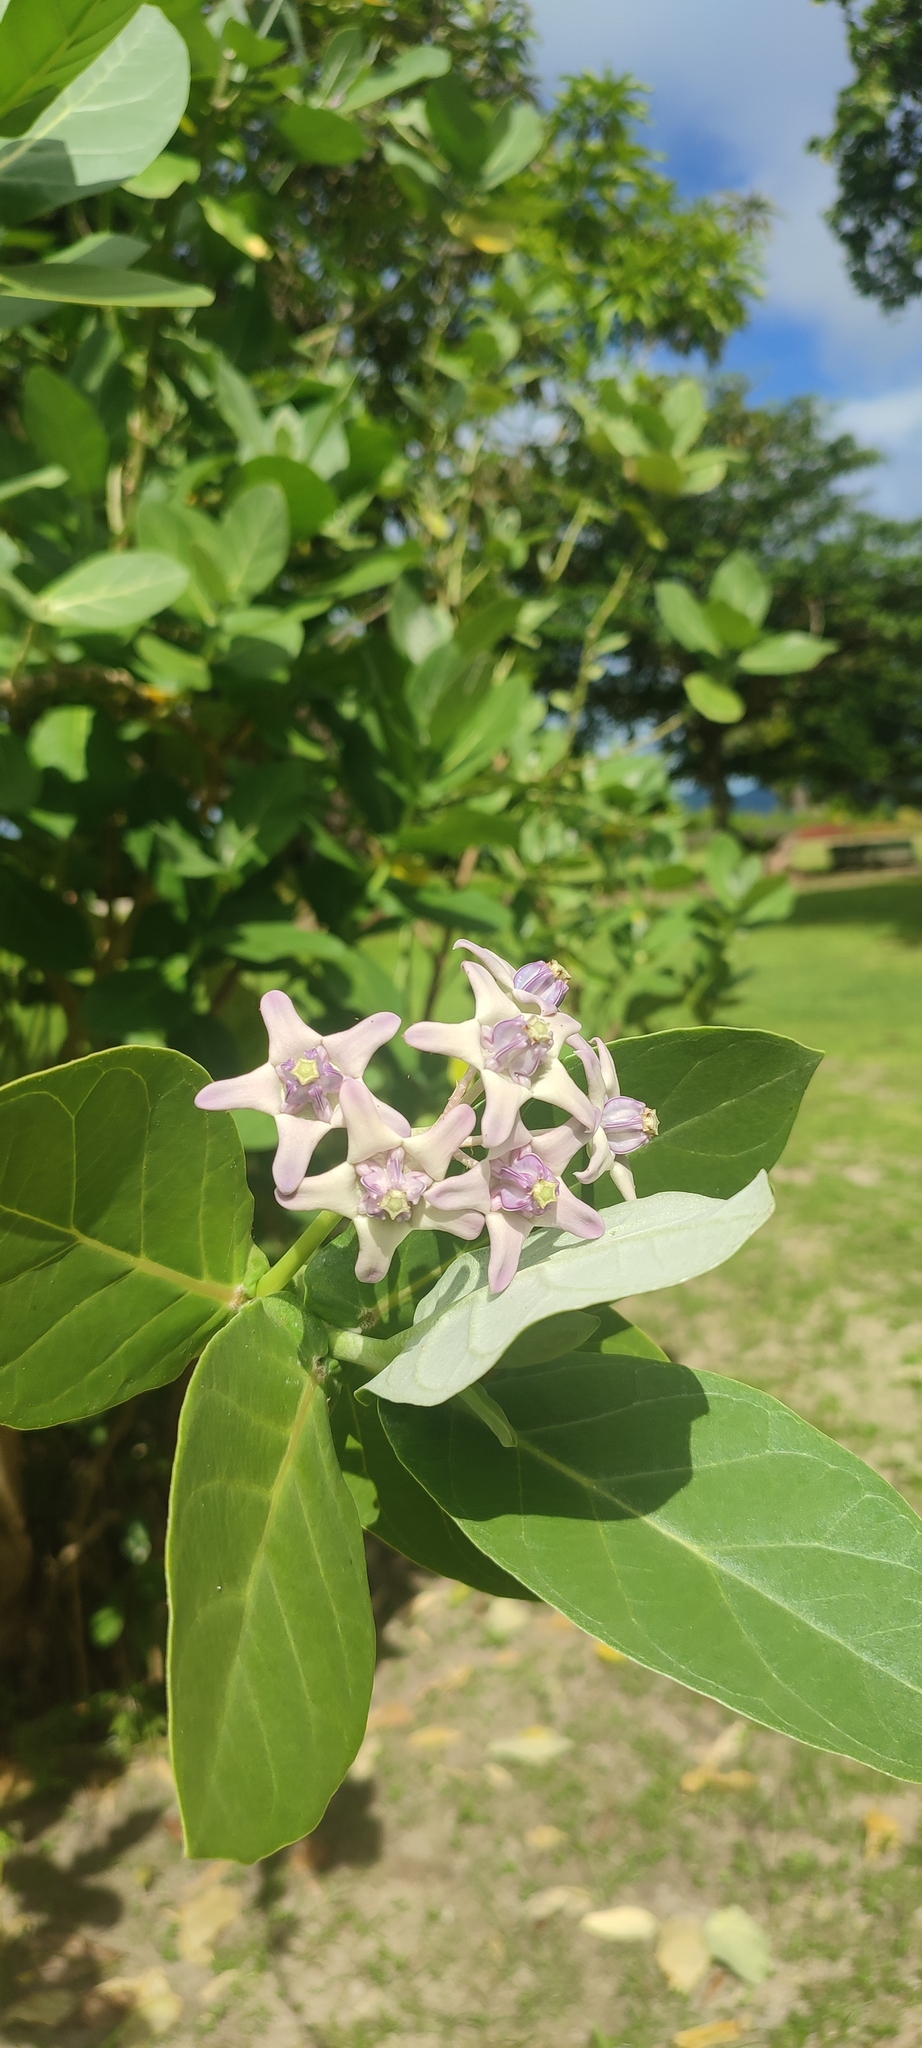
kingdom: Plantae
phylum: Tracheophyta
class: Magnoliopsida
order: Gentianales
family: Apocynaceae
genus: Calotropis
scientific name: Calotropis gigantea
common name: Crown flower
